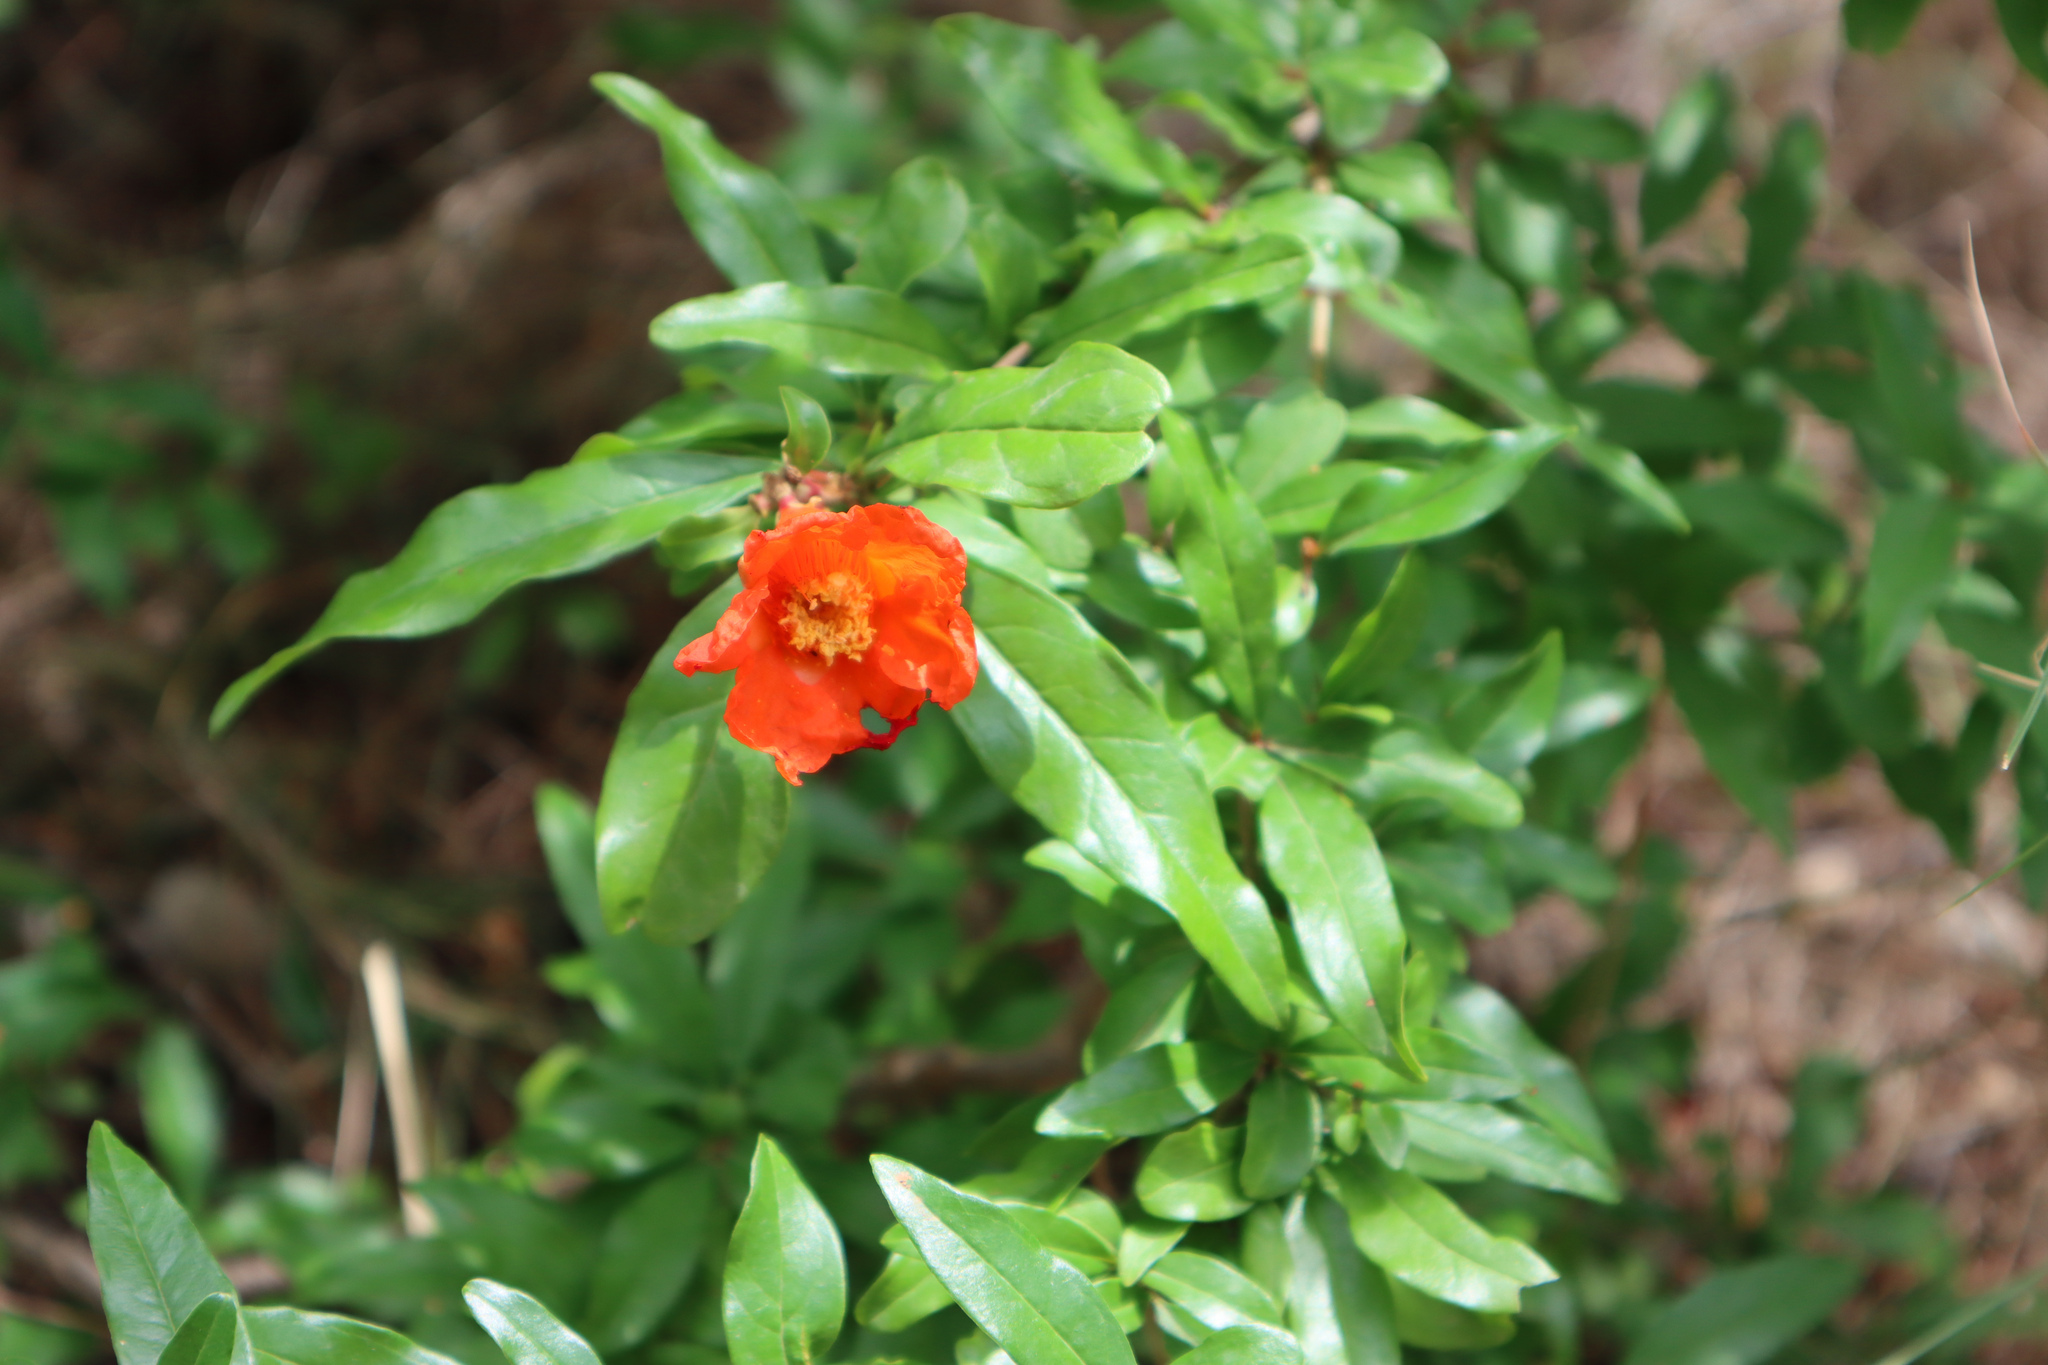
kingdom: Plantae
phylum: Tracheophyta
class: Magnoliopsida
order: Myrtales
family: Lythraceae
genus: Punica
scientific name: Punica granatum
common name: Pomegranate
